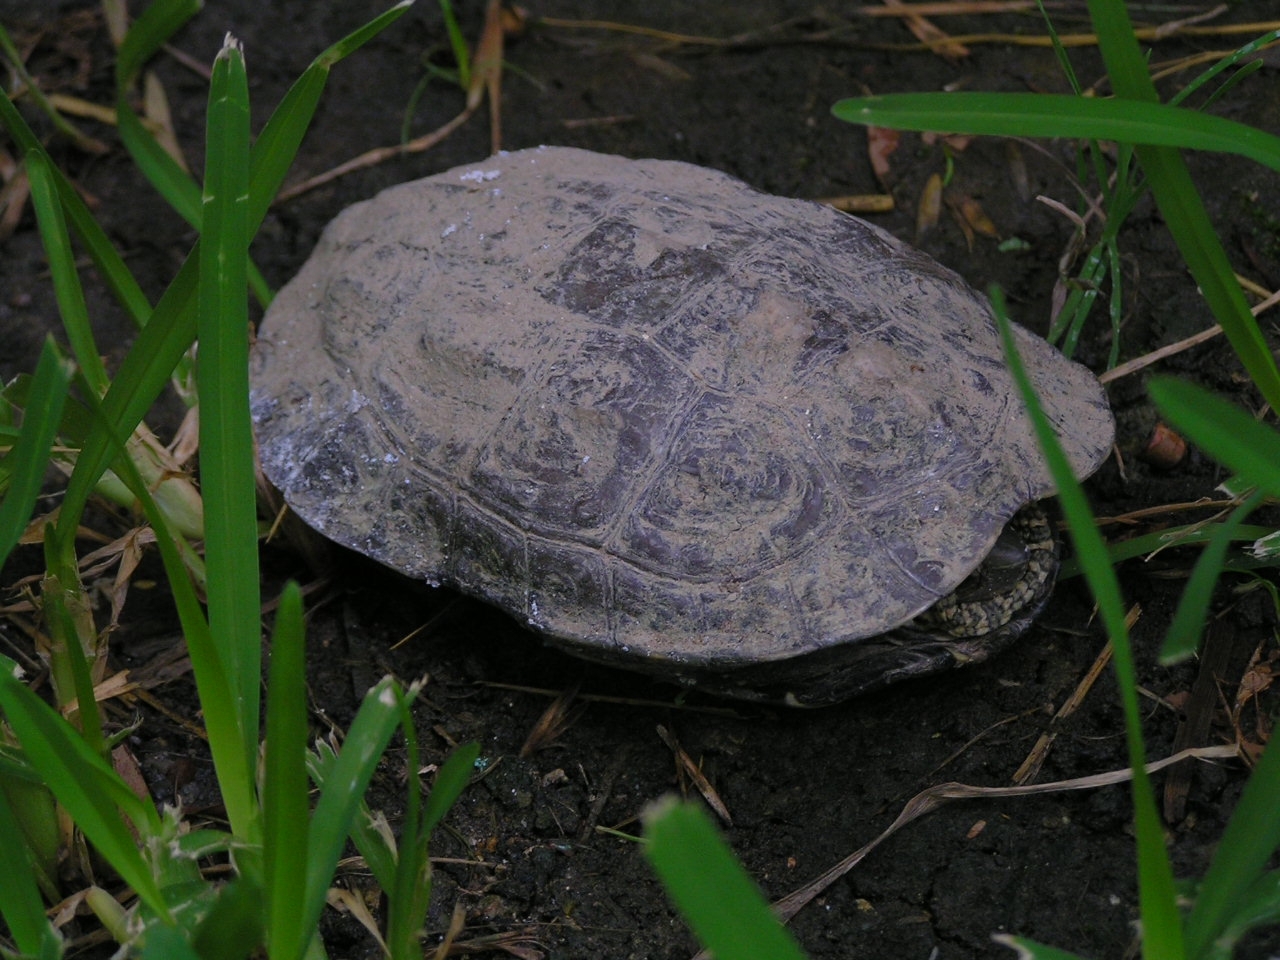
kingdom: Animalia
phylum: Chordata
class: Testudines
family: Geoemydidae
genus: Mauremys
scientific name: Mauremys rivulata
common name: Western caspian turtle
